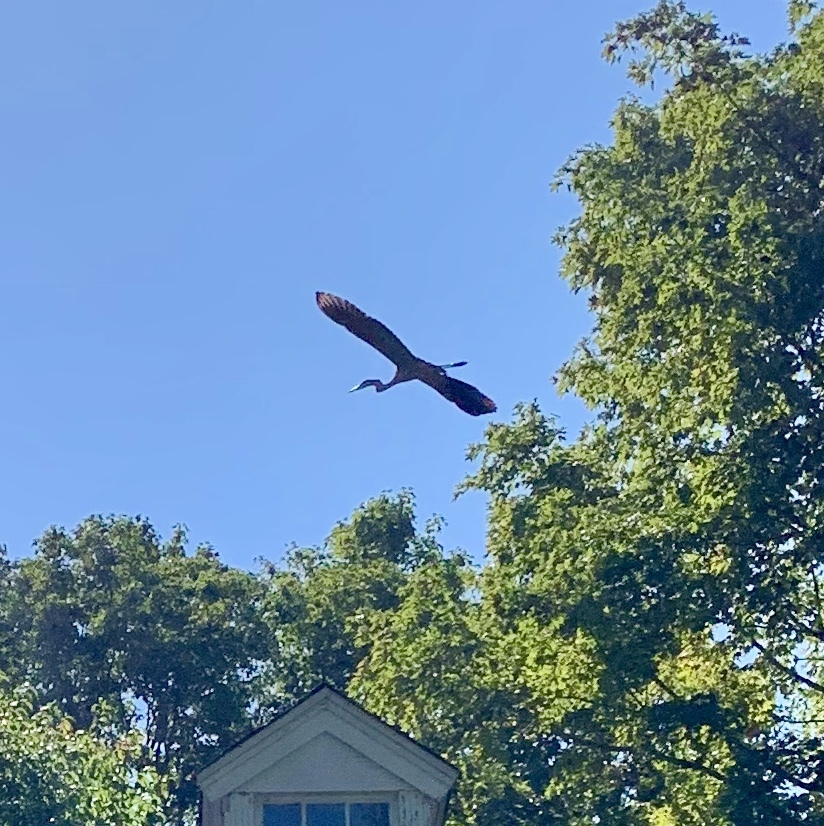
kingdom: Animalia
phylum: Chordata
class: Aves
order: Pelecaniformes
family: Ardeidae
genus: Ardea
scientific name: Ardea herodias
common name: Great blue heron
